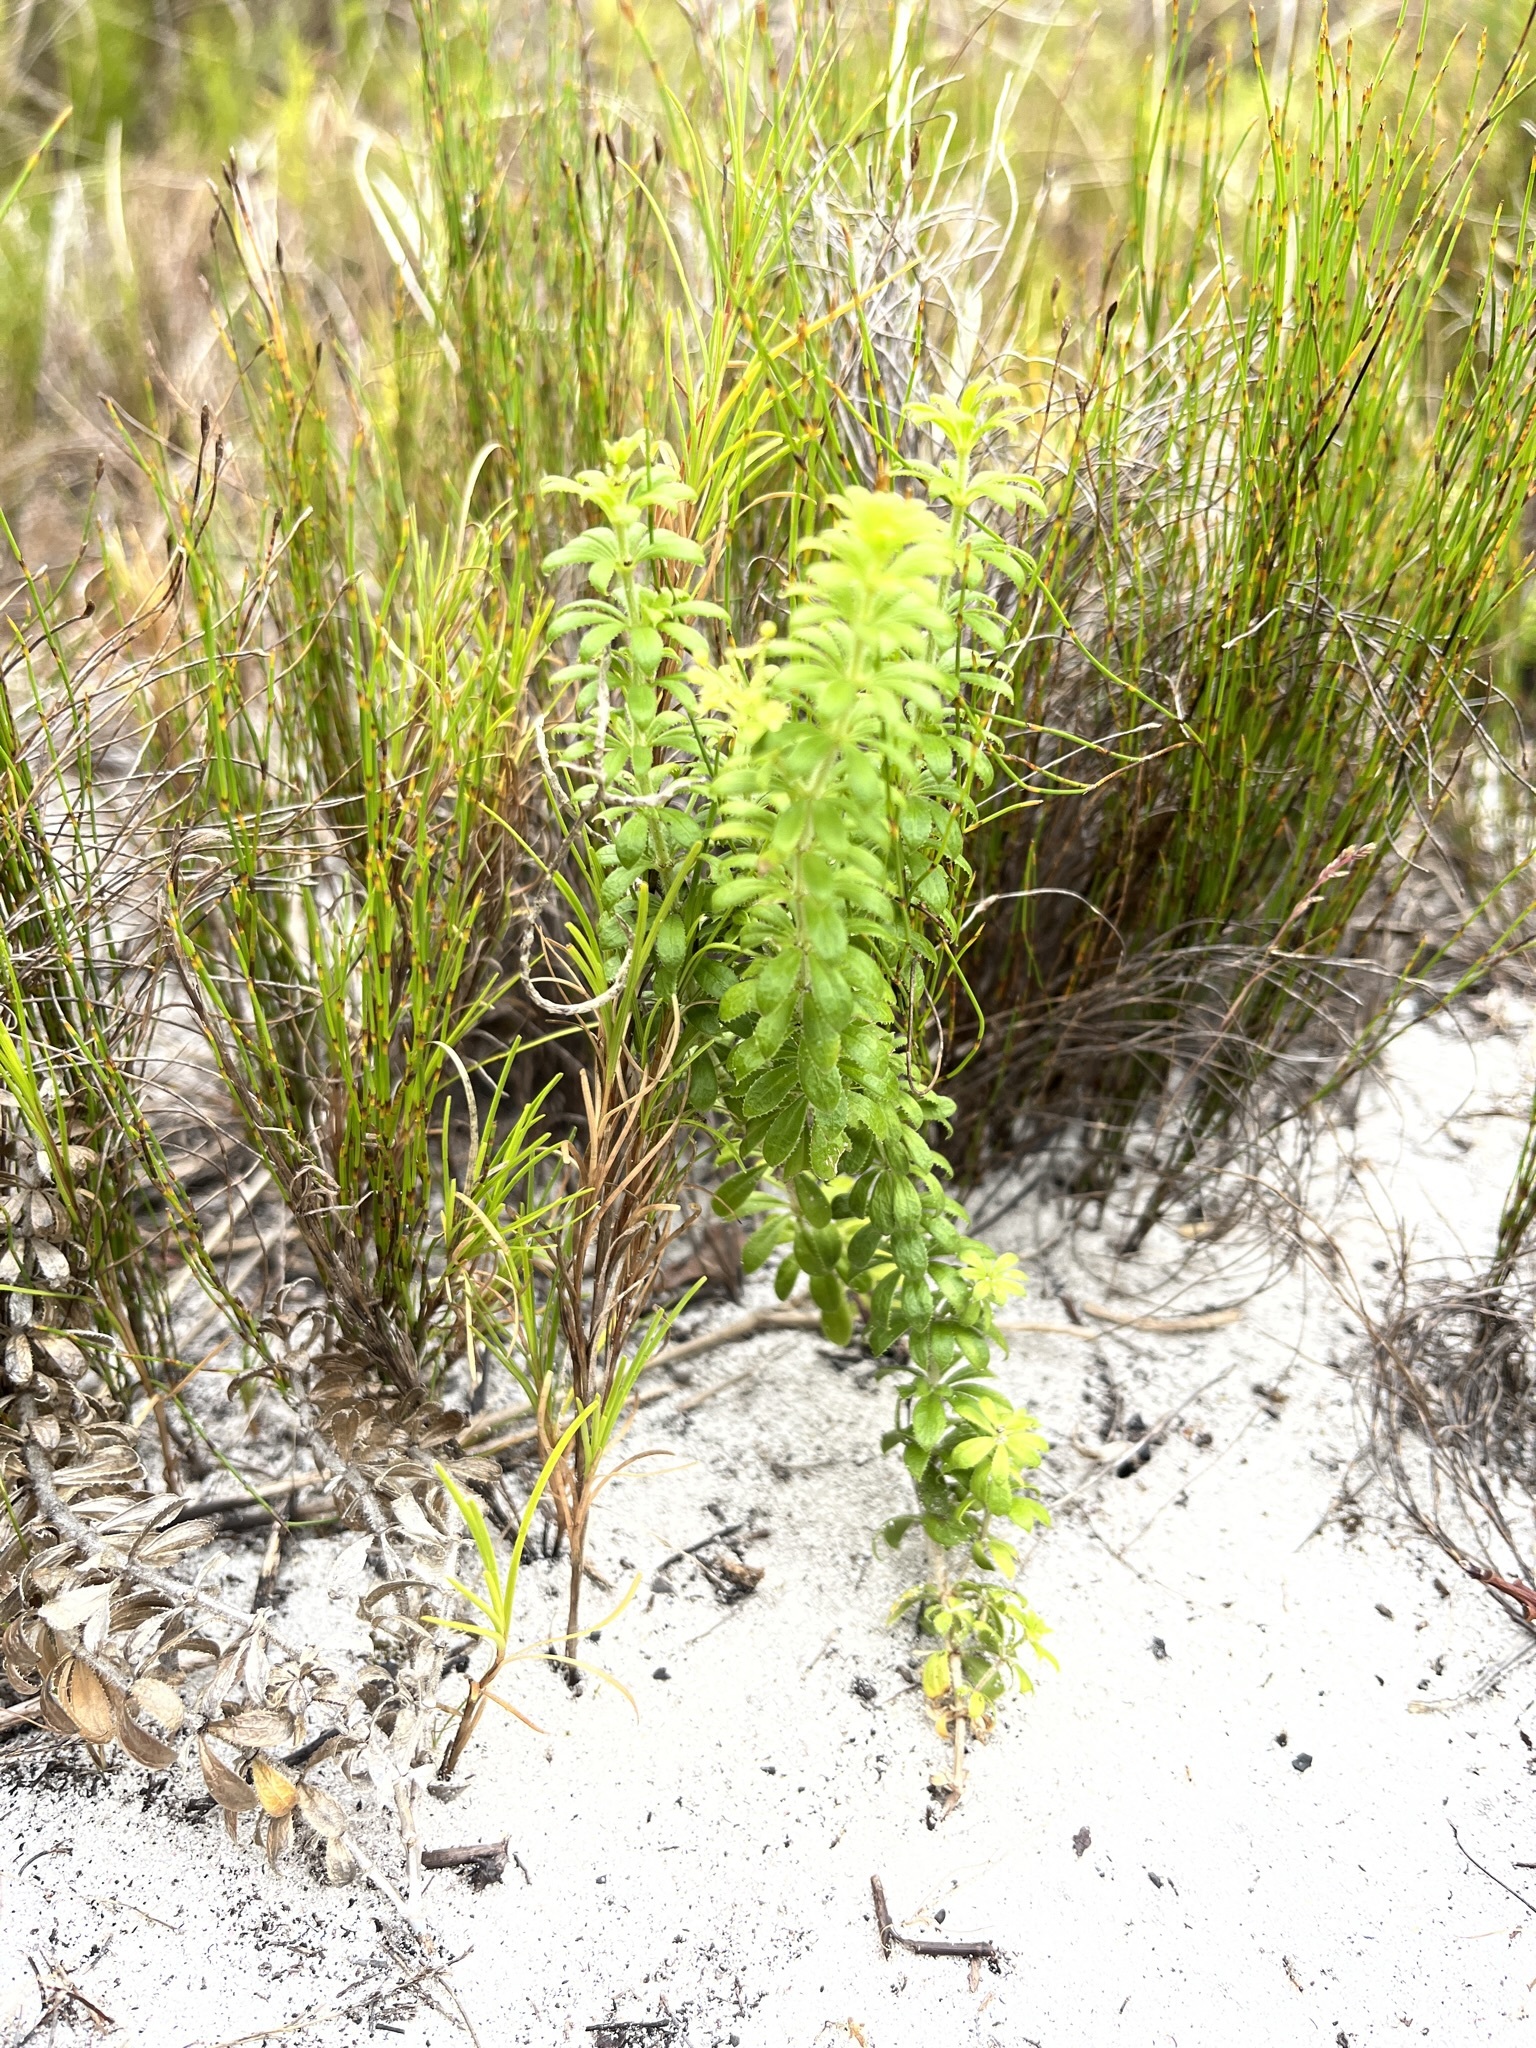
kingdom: Plantae
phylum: Tracheophyta
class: Magnoliopsida
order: Gentianales
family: Rubiaceae
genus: Galium
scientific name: Galium tomentosum
